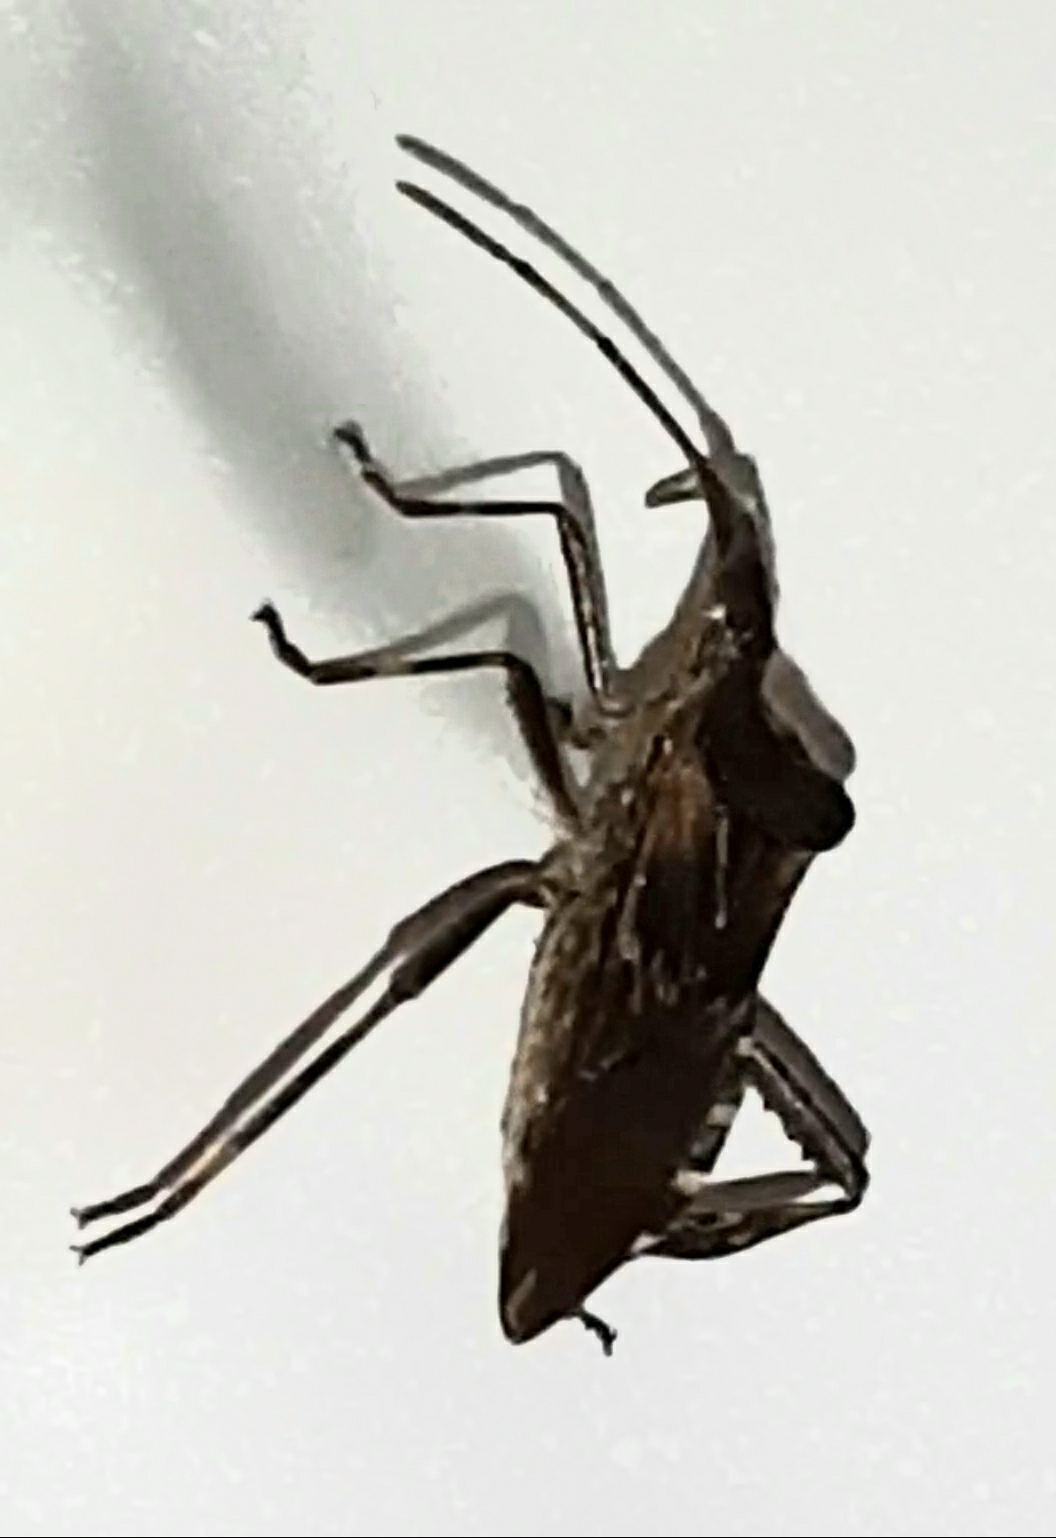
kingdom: Animalia
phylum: Arthropoda
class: Insecta
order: Hemiptera
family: Coreidae
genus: Leptoglossus
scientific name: Leptoglossus occidentalis
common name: Western conifer-seed bug
